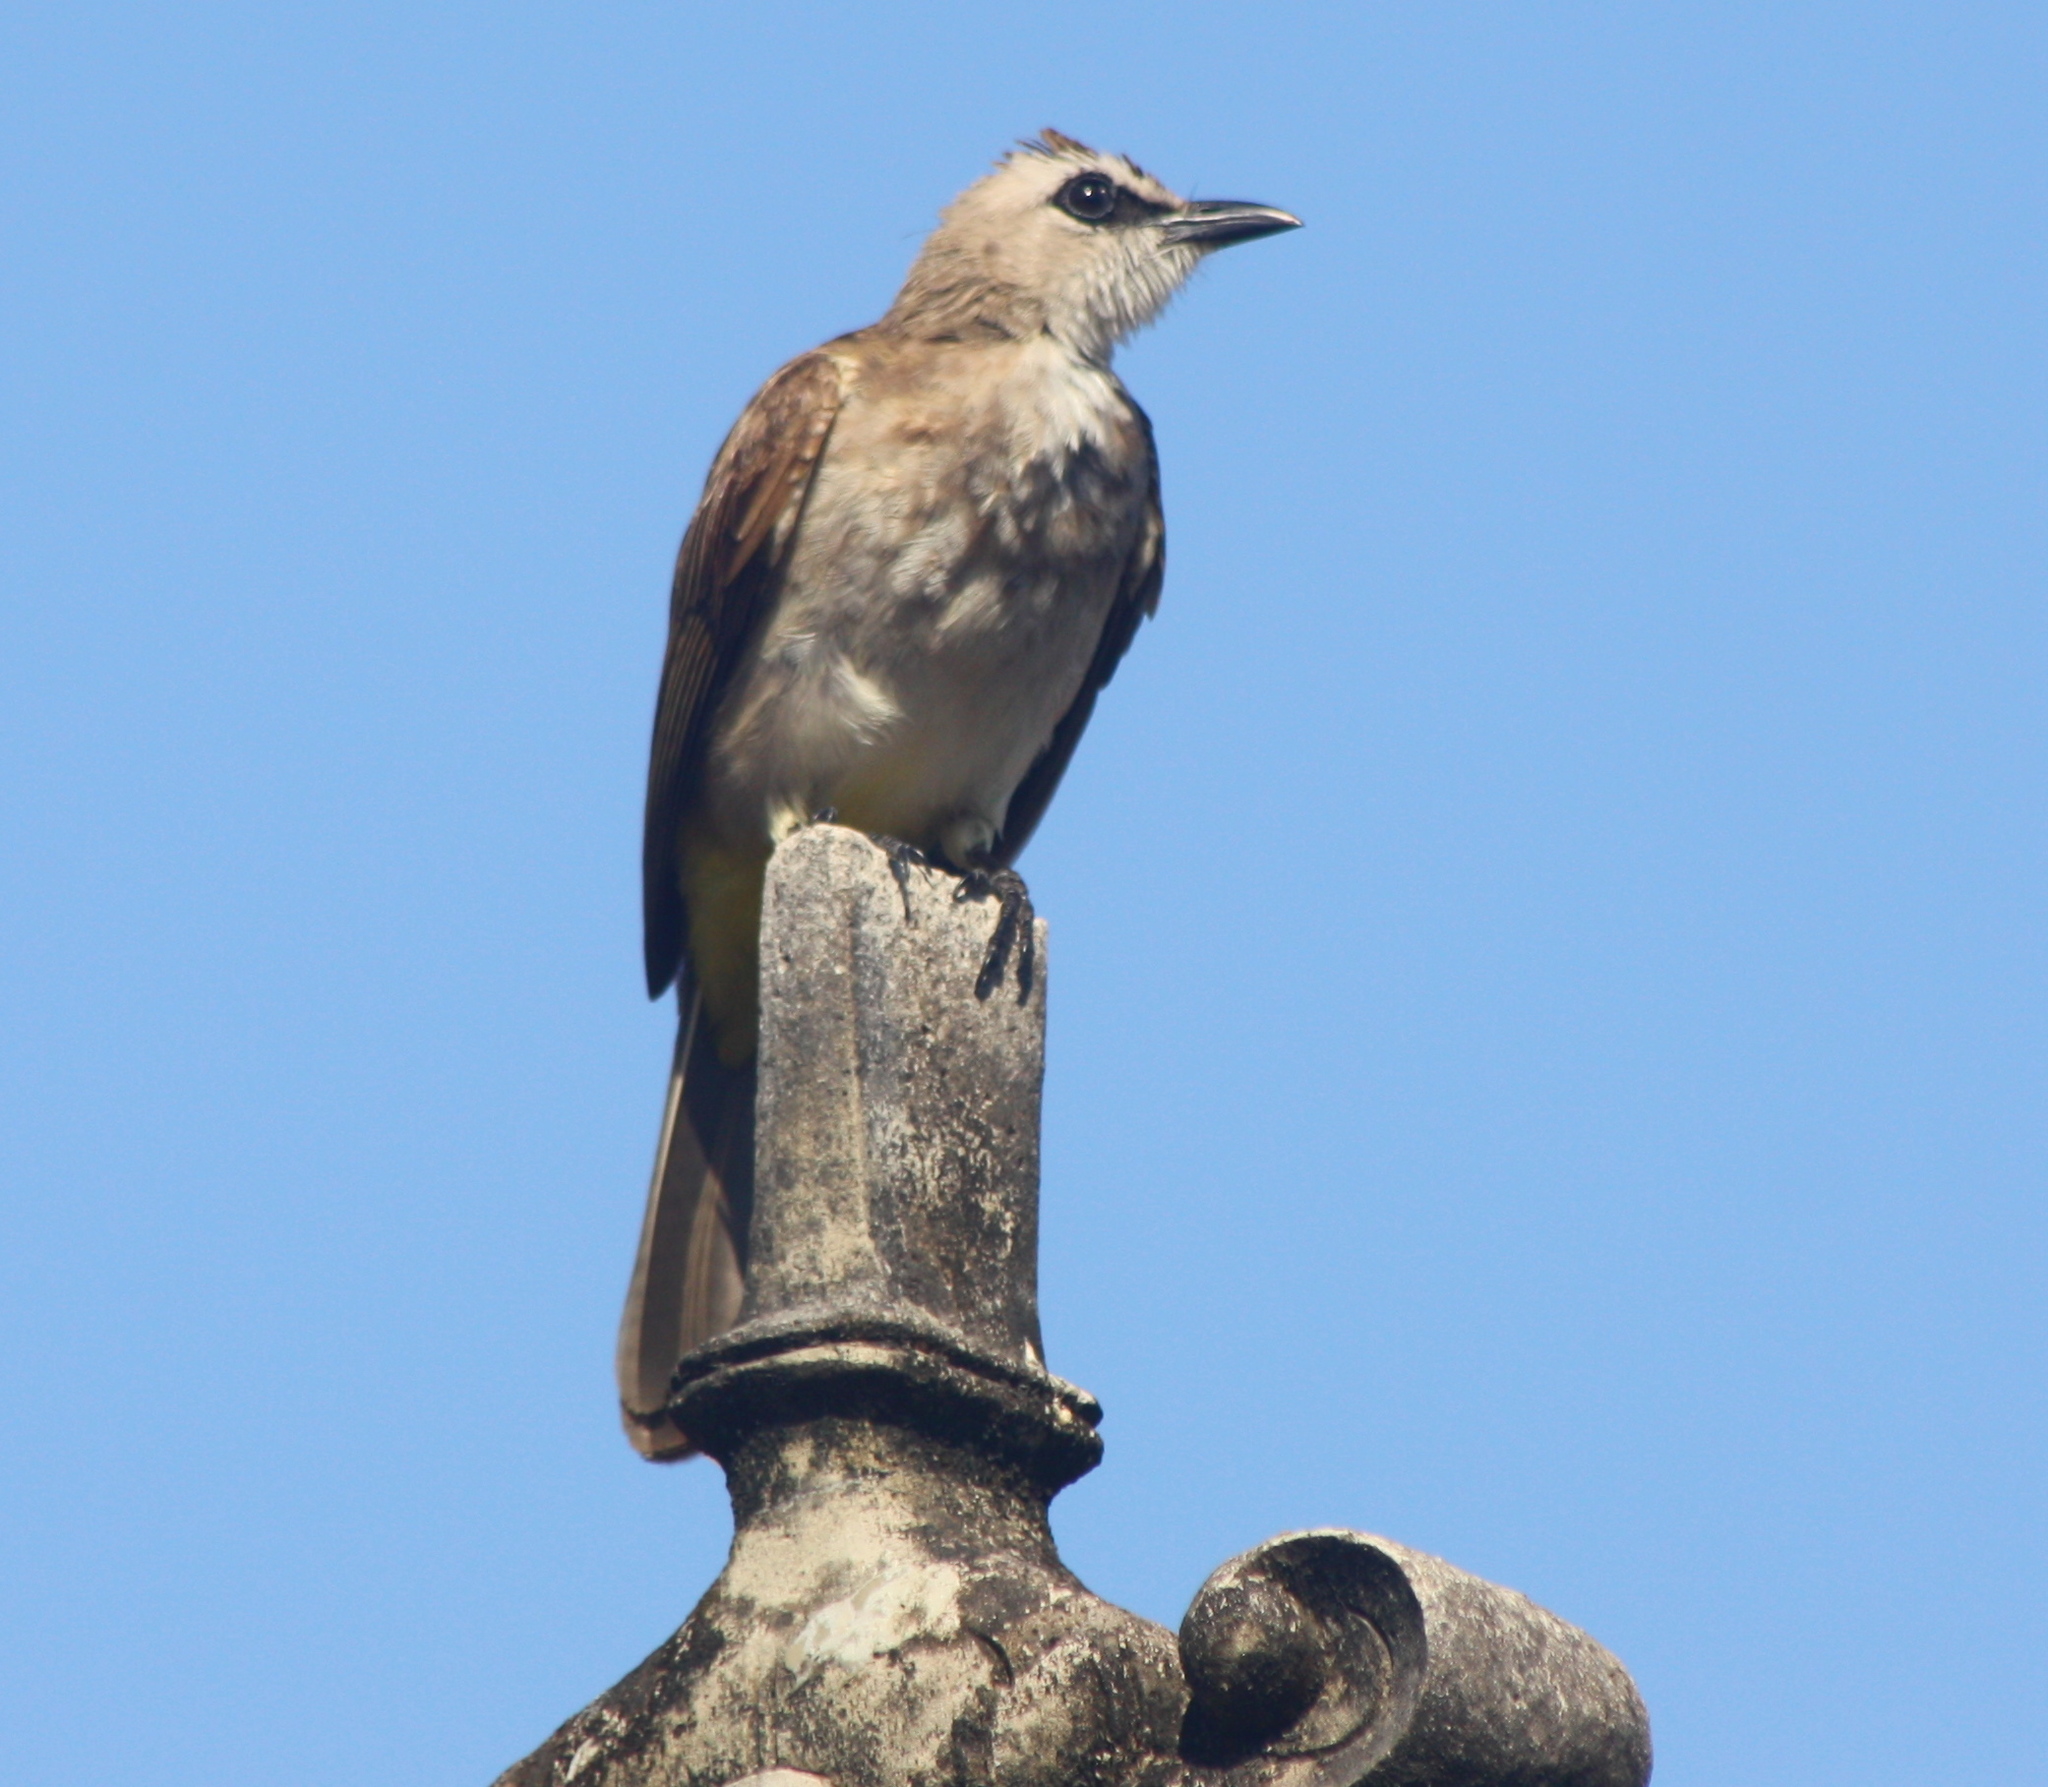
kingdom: Animalia
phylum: Chordata
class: Aves
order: Passeriformes
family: Pycnonotidae
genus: Pycnonotus
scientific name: Pycnonotus goiavier
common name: Yellow-vented bulbul
